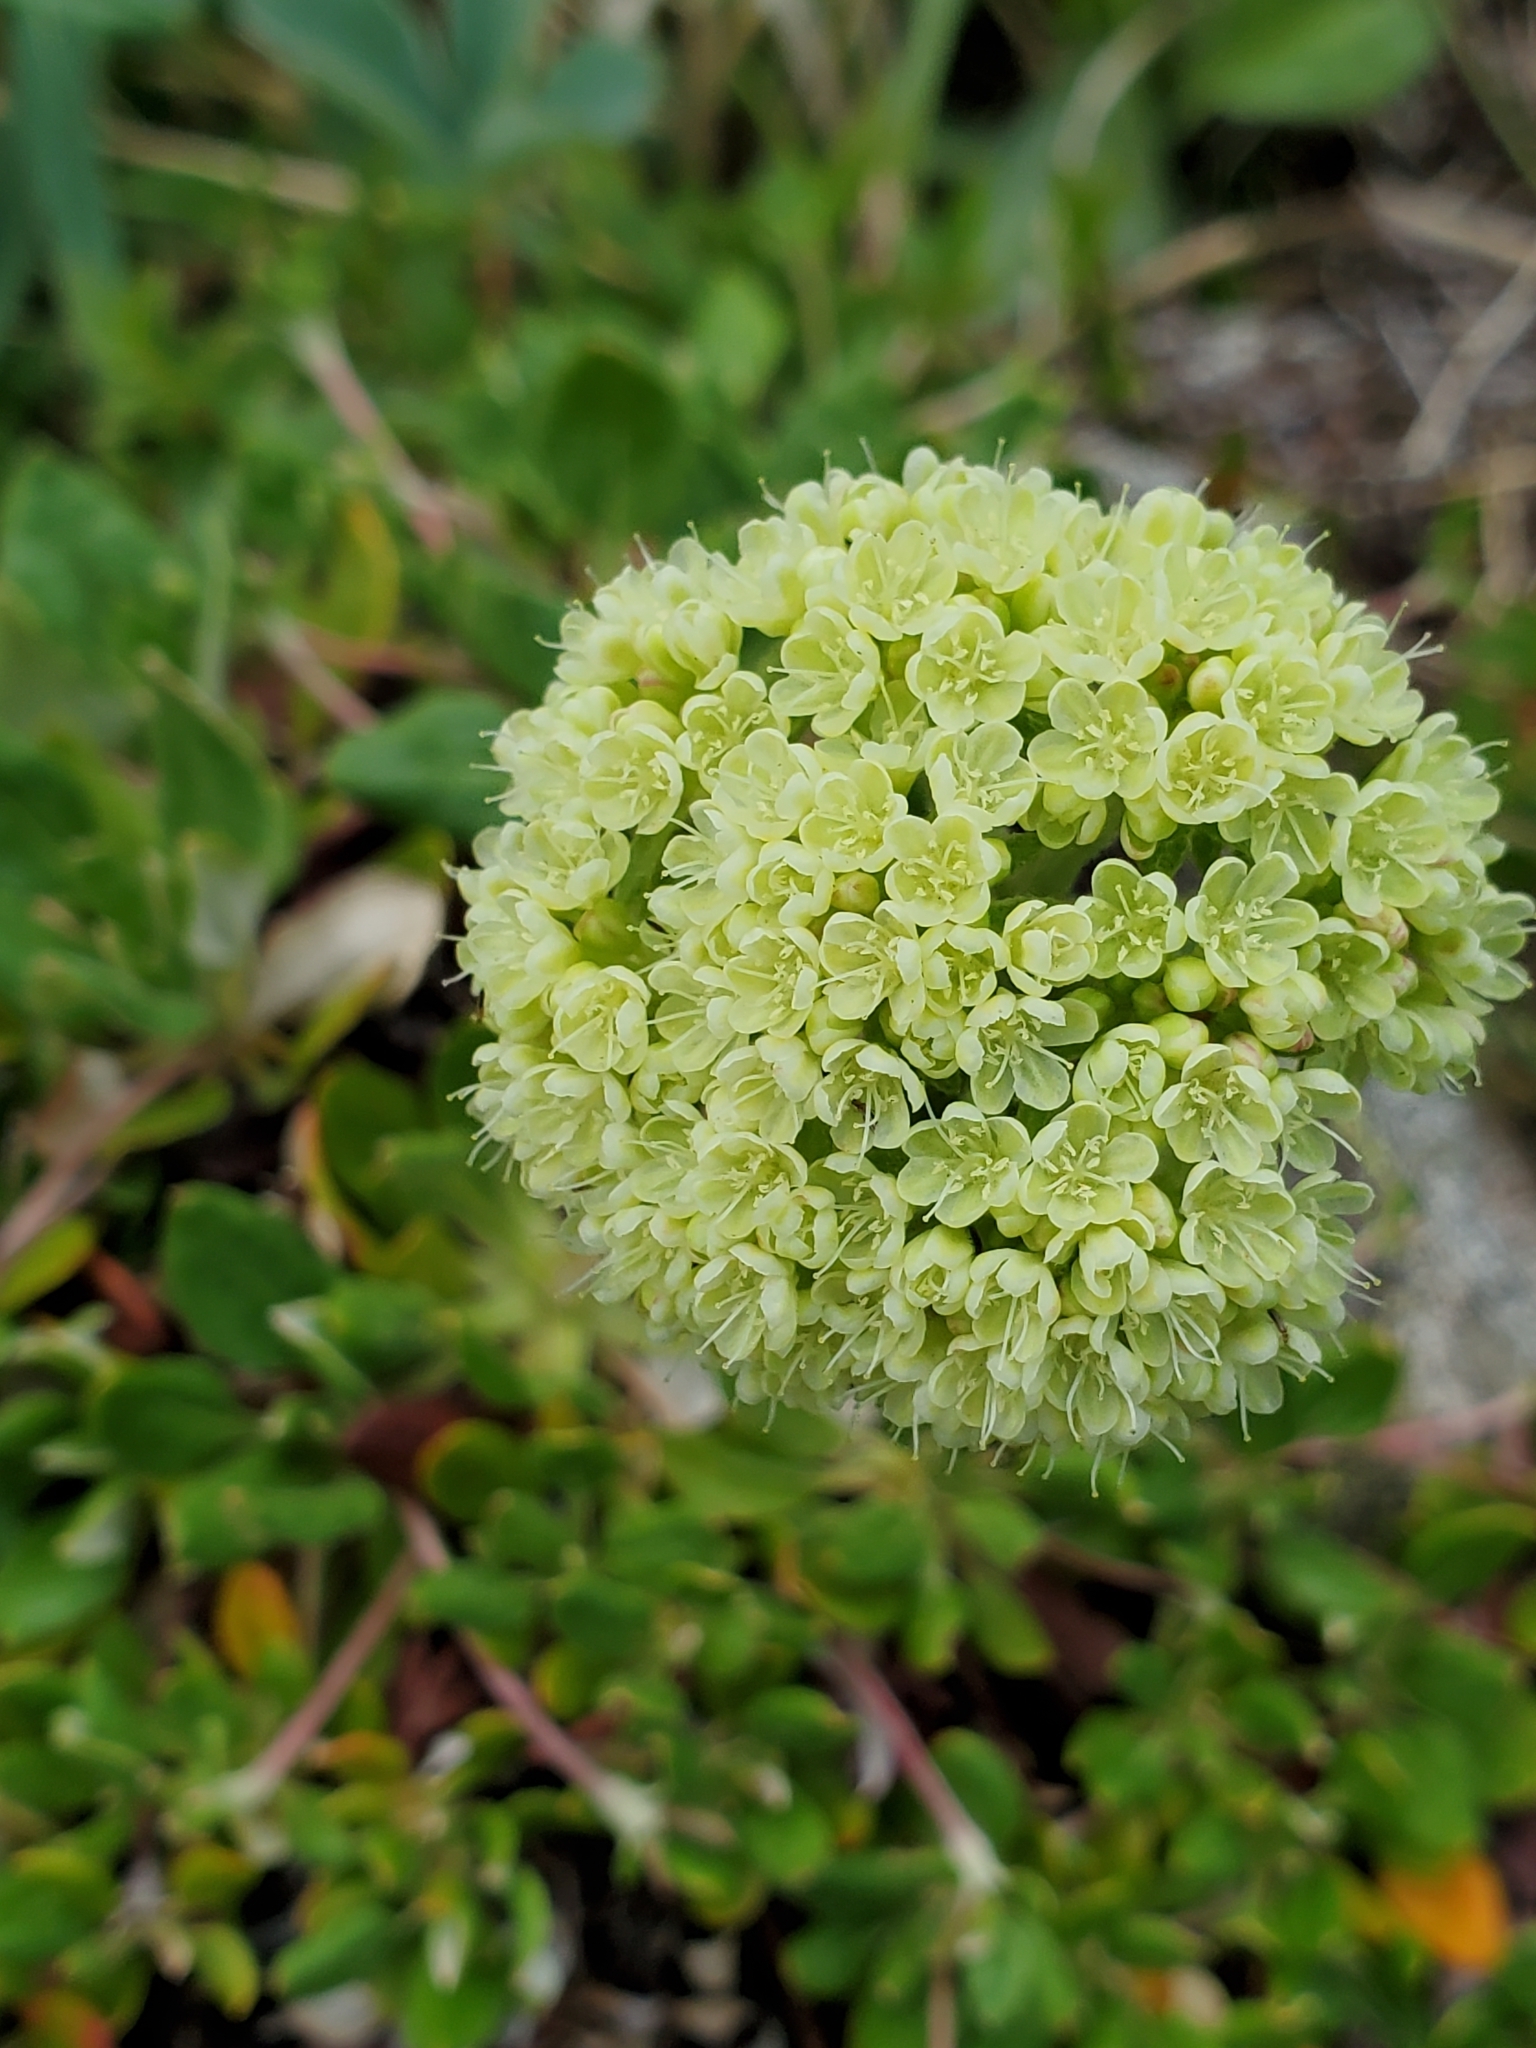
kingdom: Plantae
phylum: Tracheophyta
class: Magnoliopsida
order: Caryophyllales
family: Polygonaceae
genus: Eriogonum
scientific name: Eriogonum umbellatum
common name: Sulfur-buckwheat
